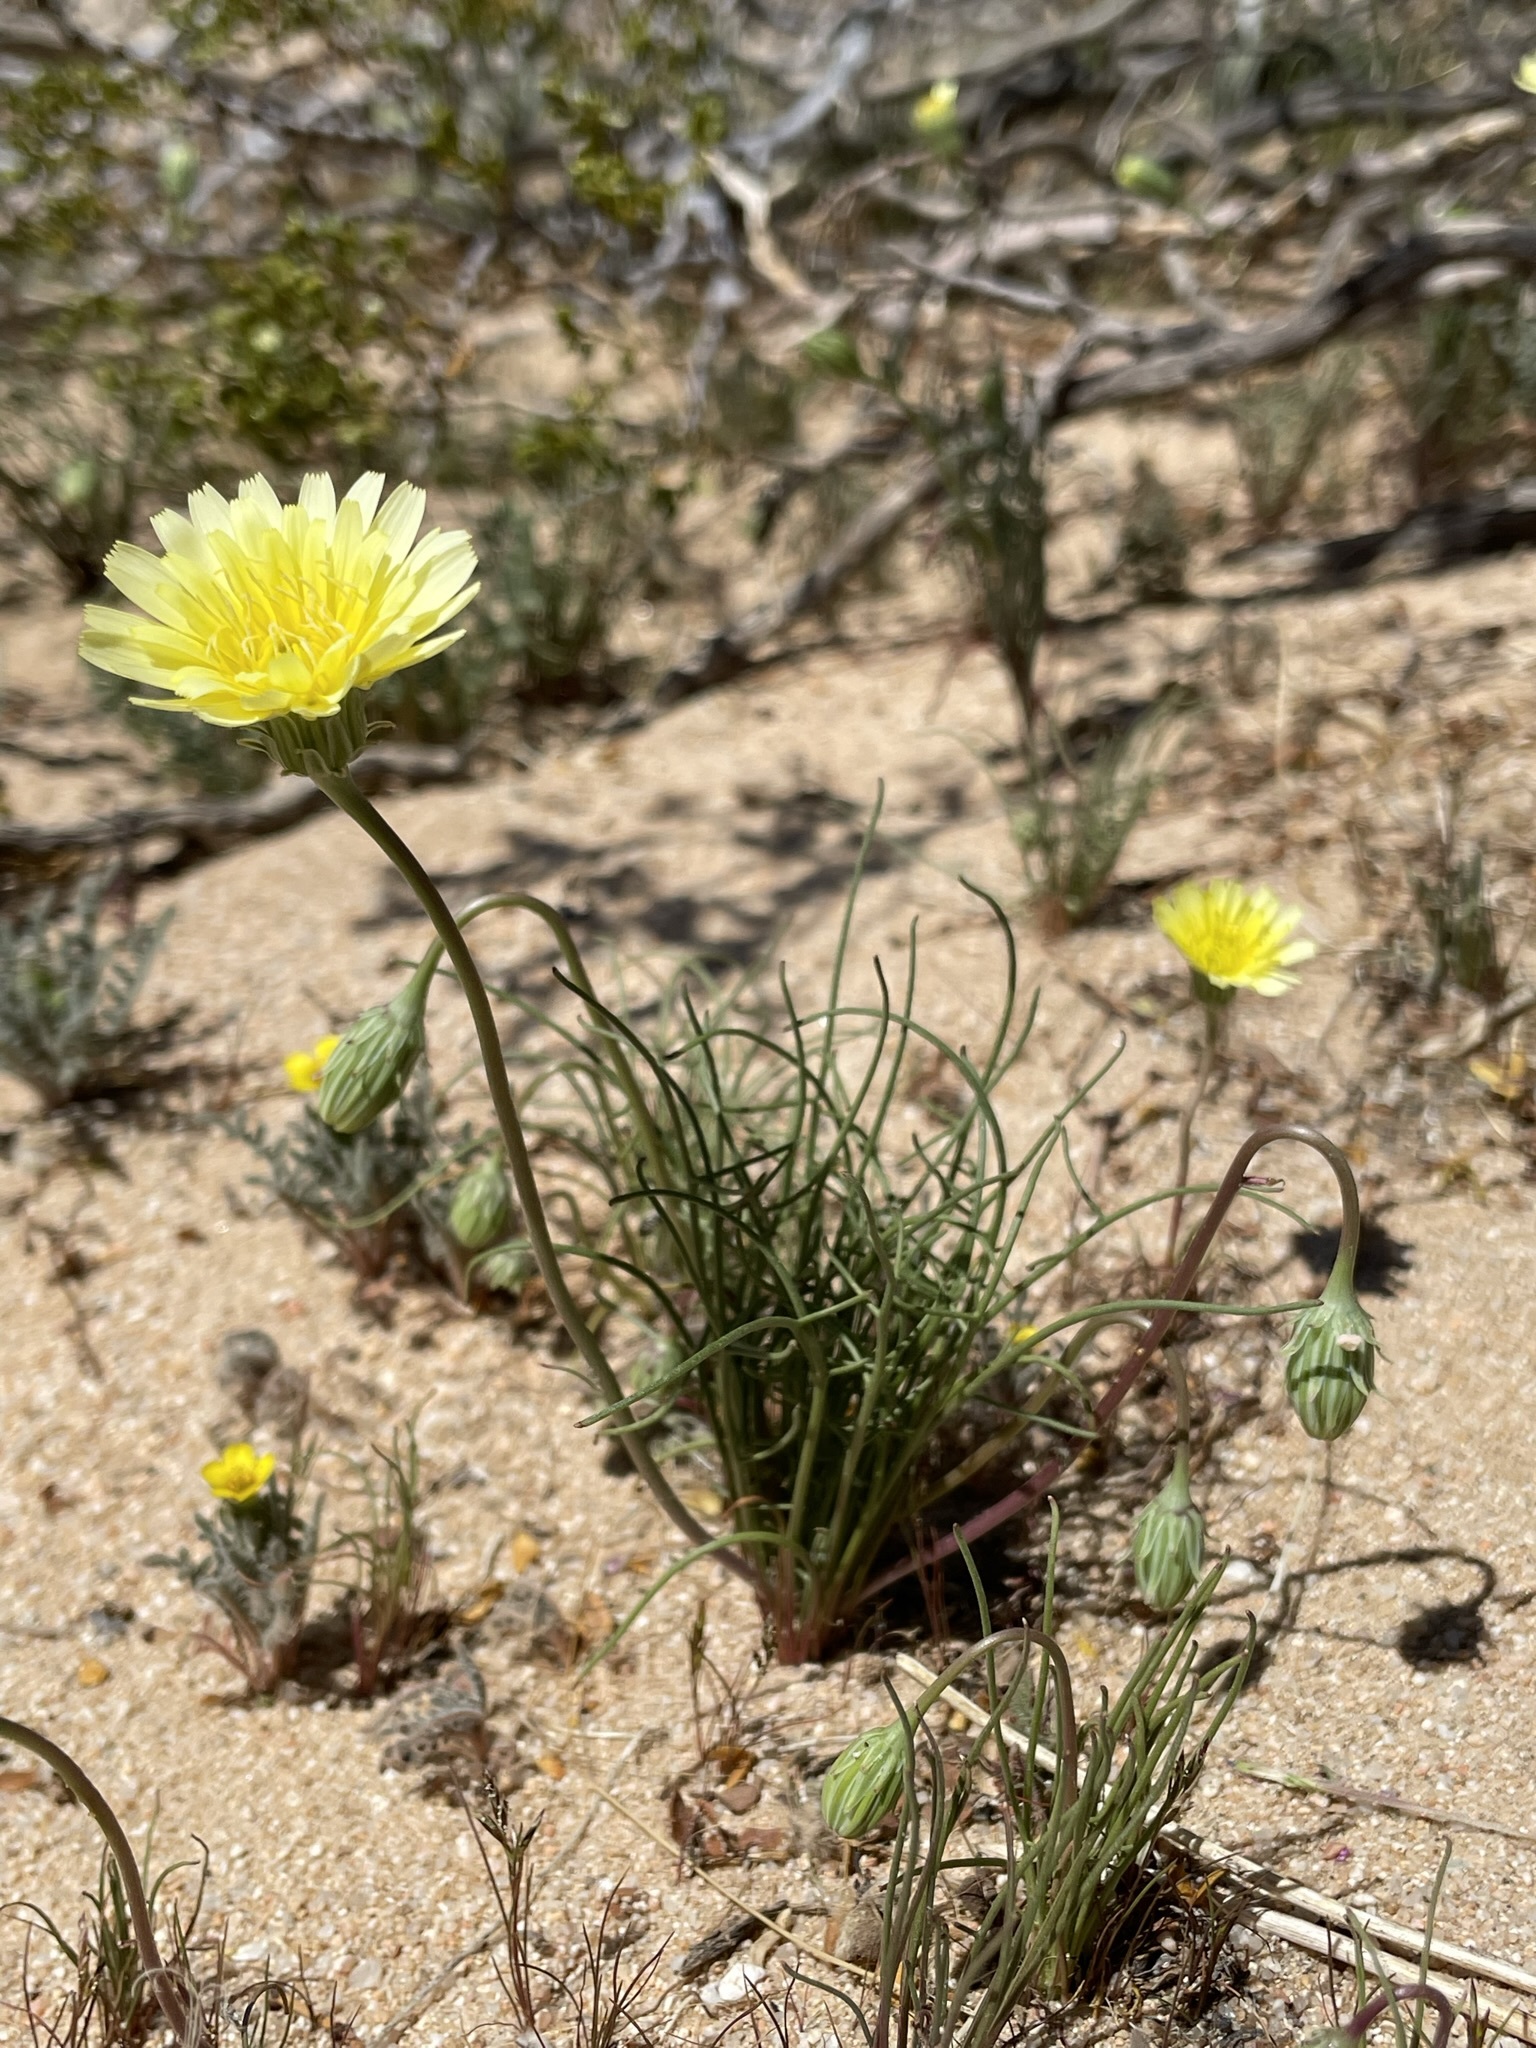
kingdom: Plantae
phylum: Tracheophyta
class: Magnoliopsida
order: Asterales
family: Asteraceae
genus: Malacothrix
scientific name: Malacothrix glabrata
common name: Smooth desert-dandelion
